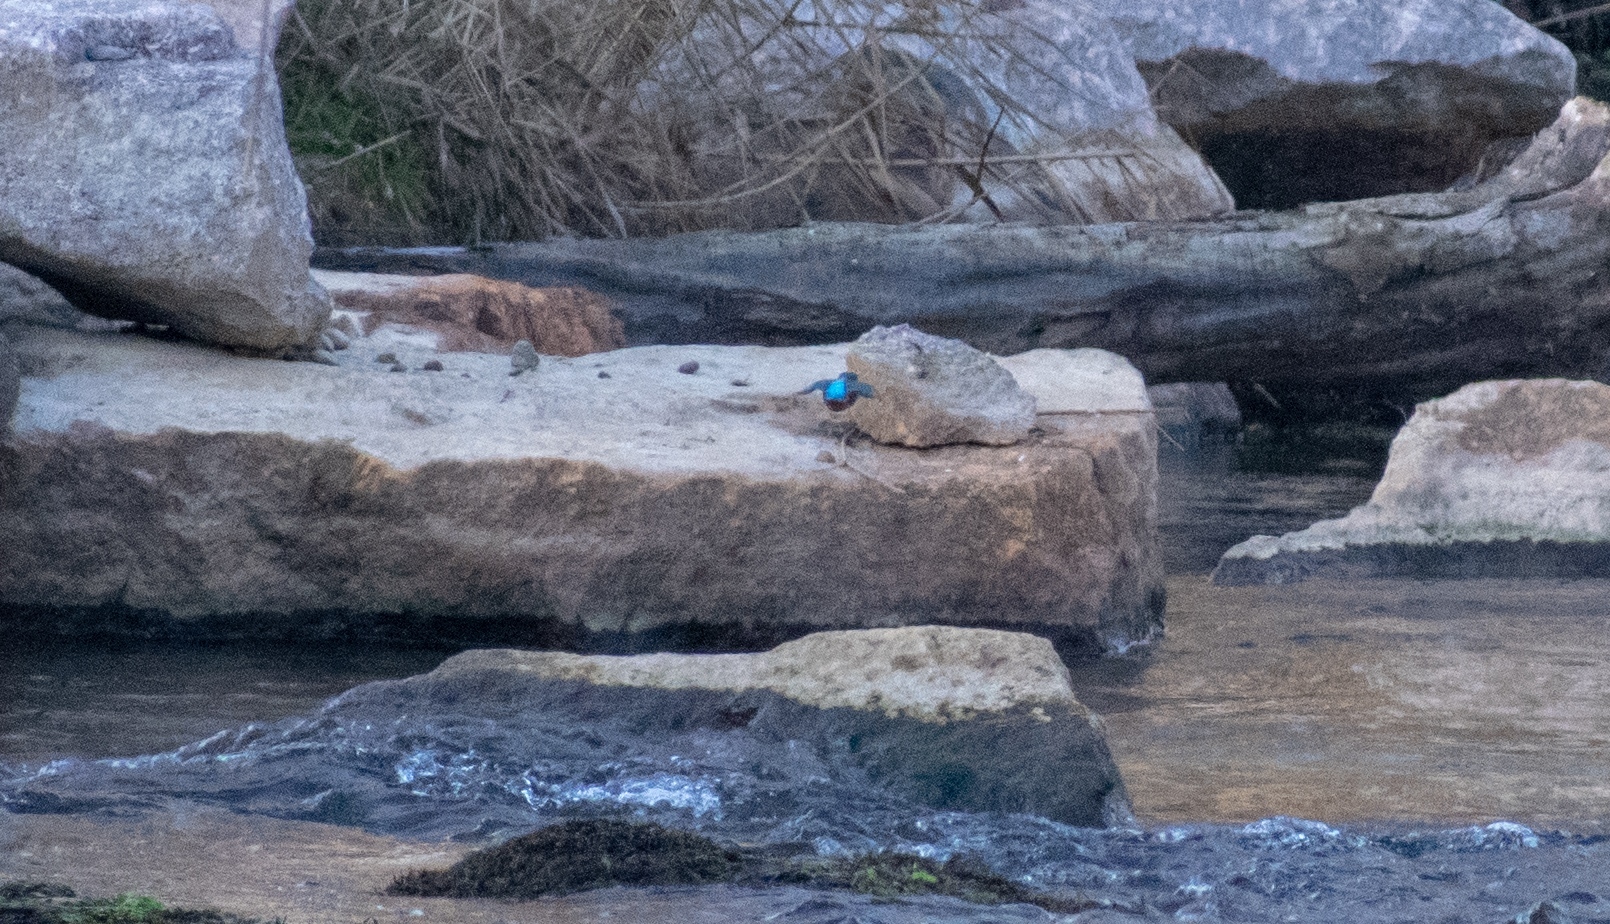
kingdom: Animalia
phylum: Chordata
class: Aves
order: Coraciiformes
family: Alcedinidae
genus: Alcedo
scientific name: Alcedo atthis
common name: Common kingfisher
